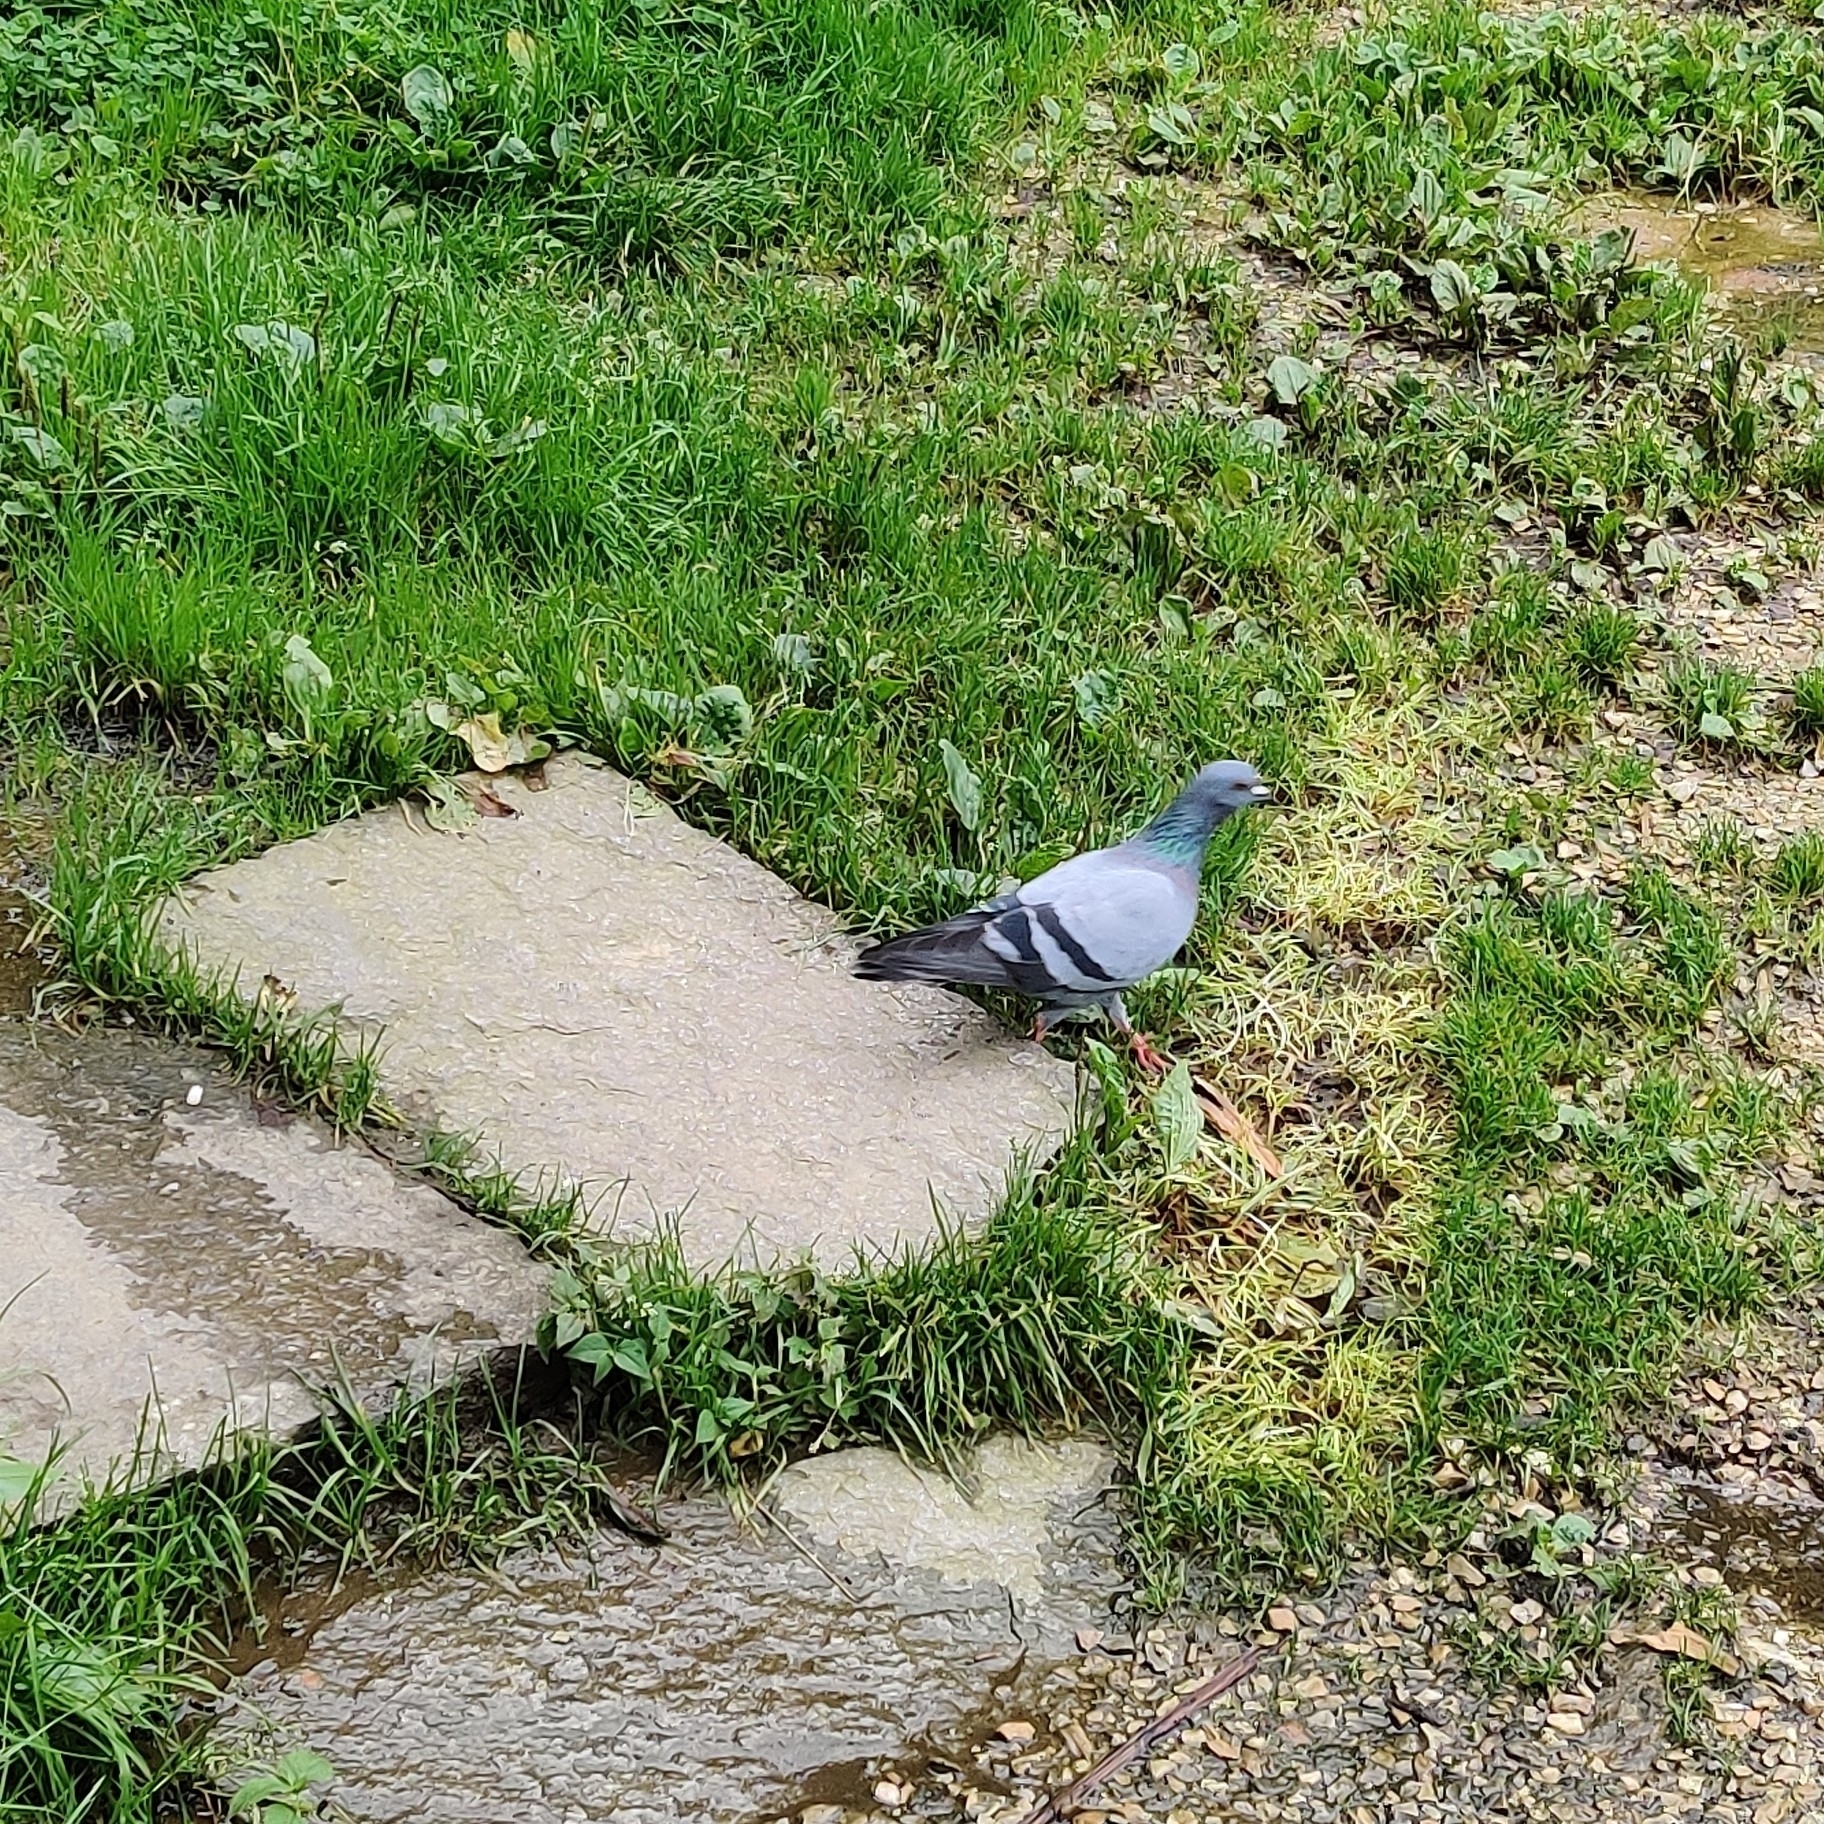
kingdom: Animalia
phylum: Chordata
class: Aves
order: Columbiformes
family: Columbidae
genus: Columba
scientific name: Columba livia
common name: Rock pigeon
